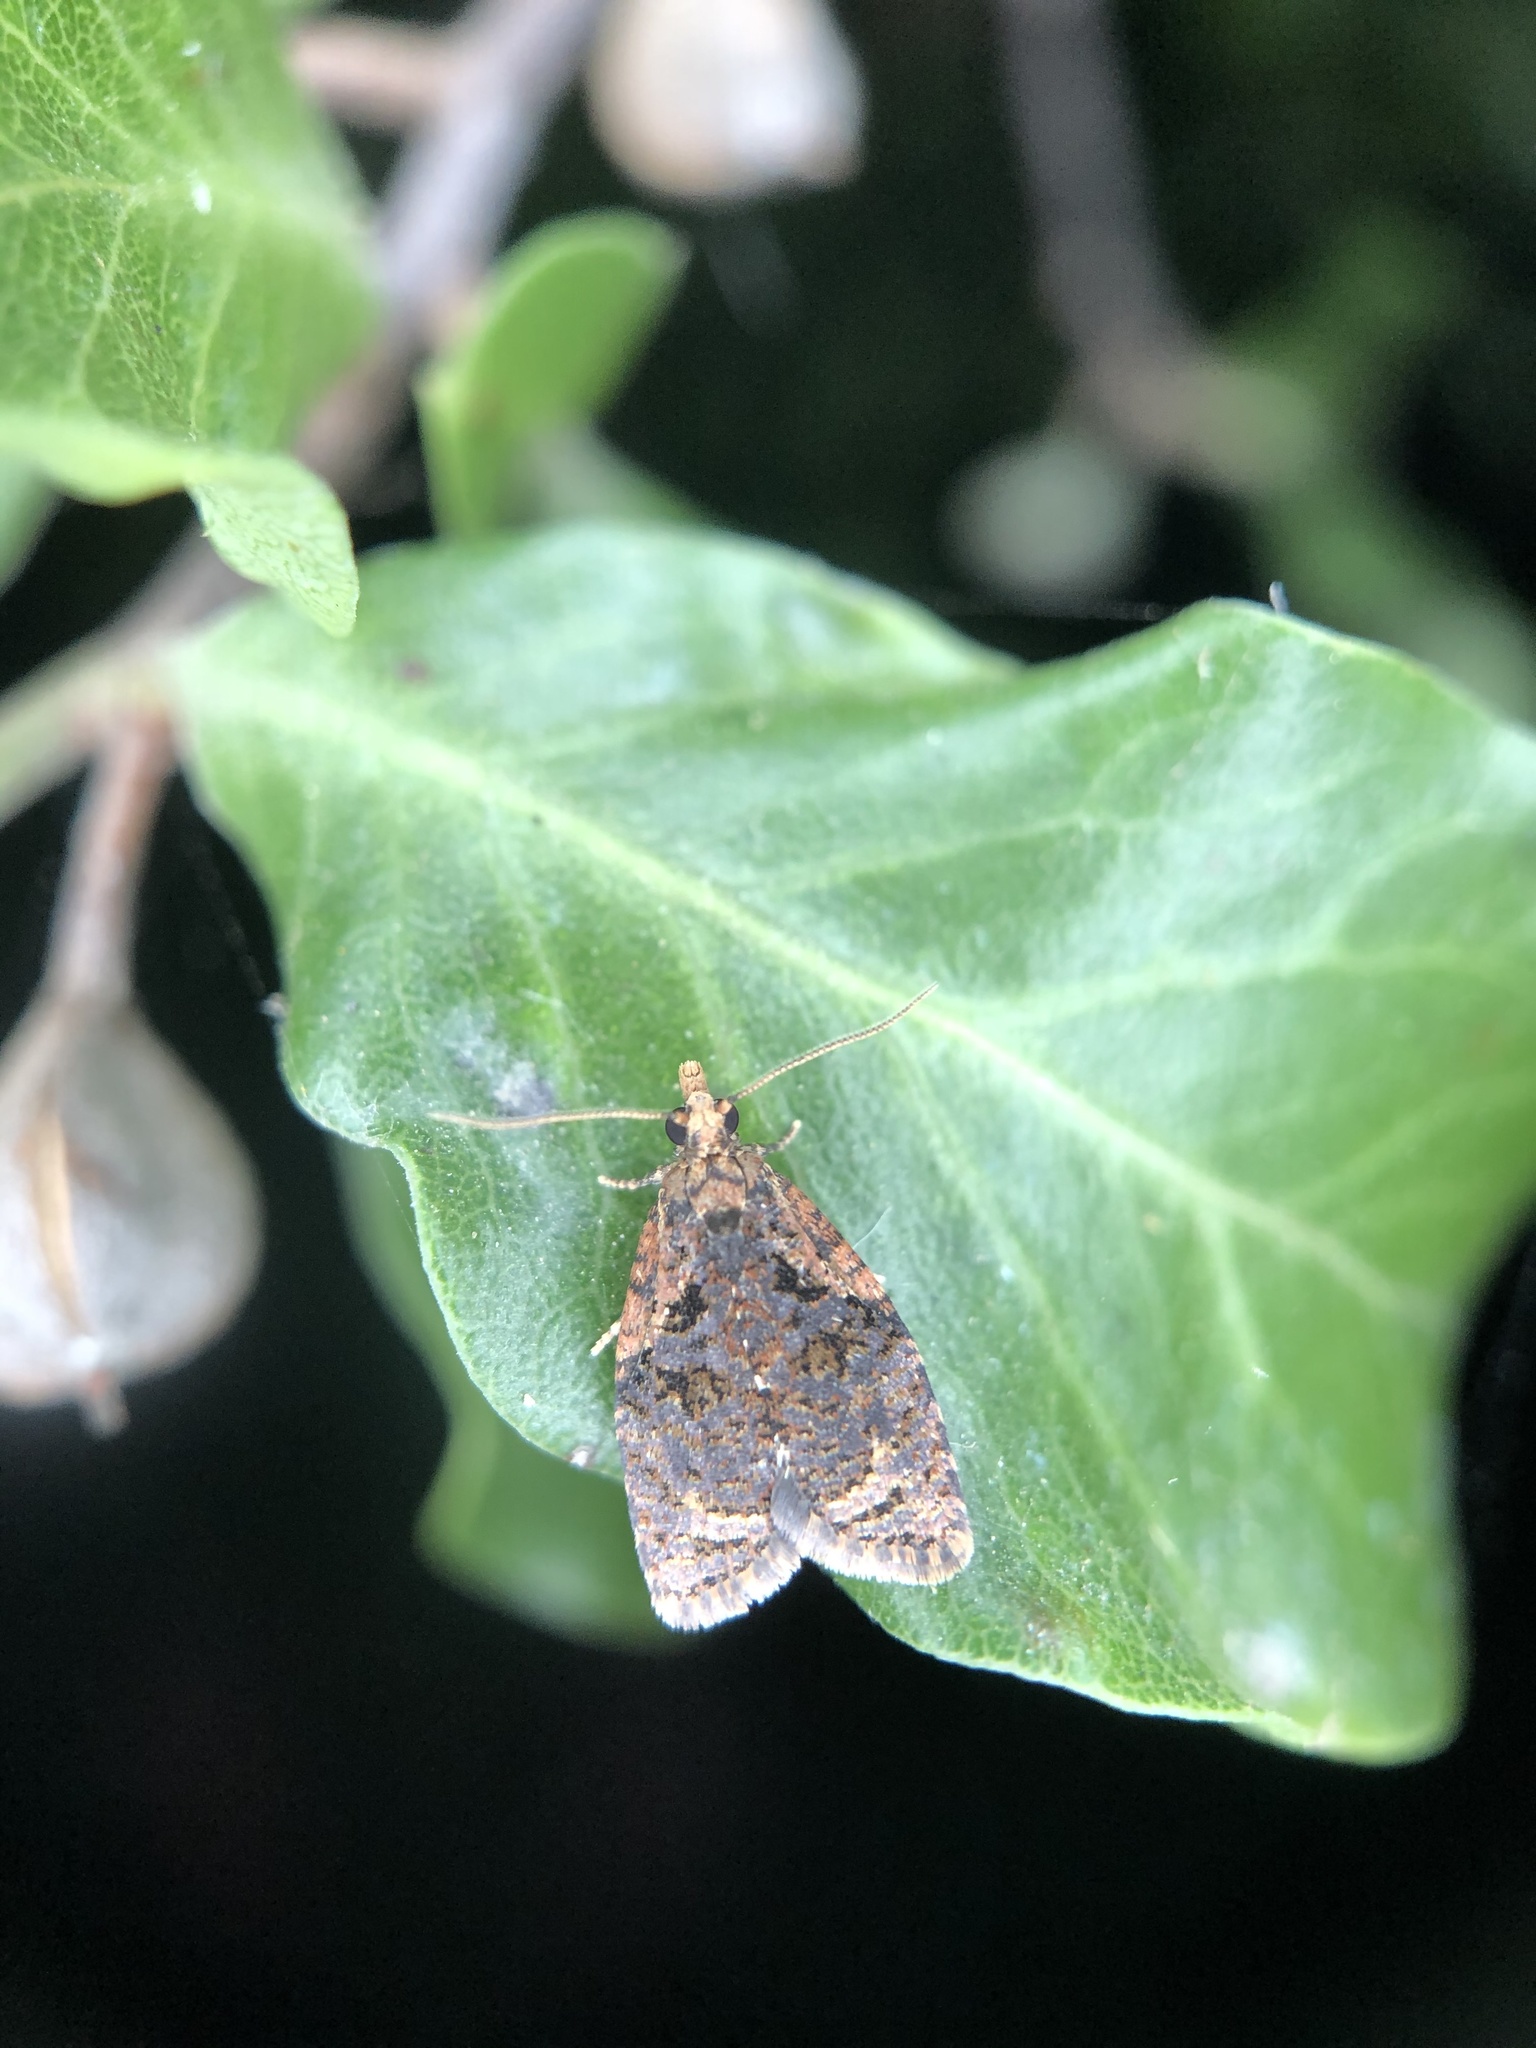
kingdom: Animalia
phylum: Arthropoda
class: Insecta
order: Lepidoptera
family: Tortricidae
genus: Capua
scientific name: Capua intractana
